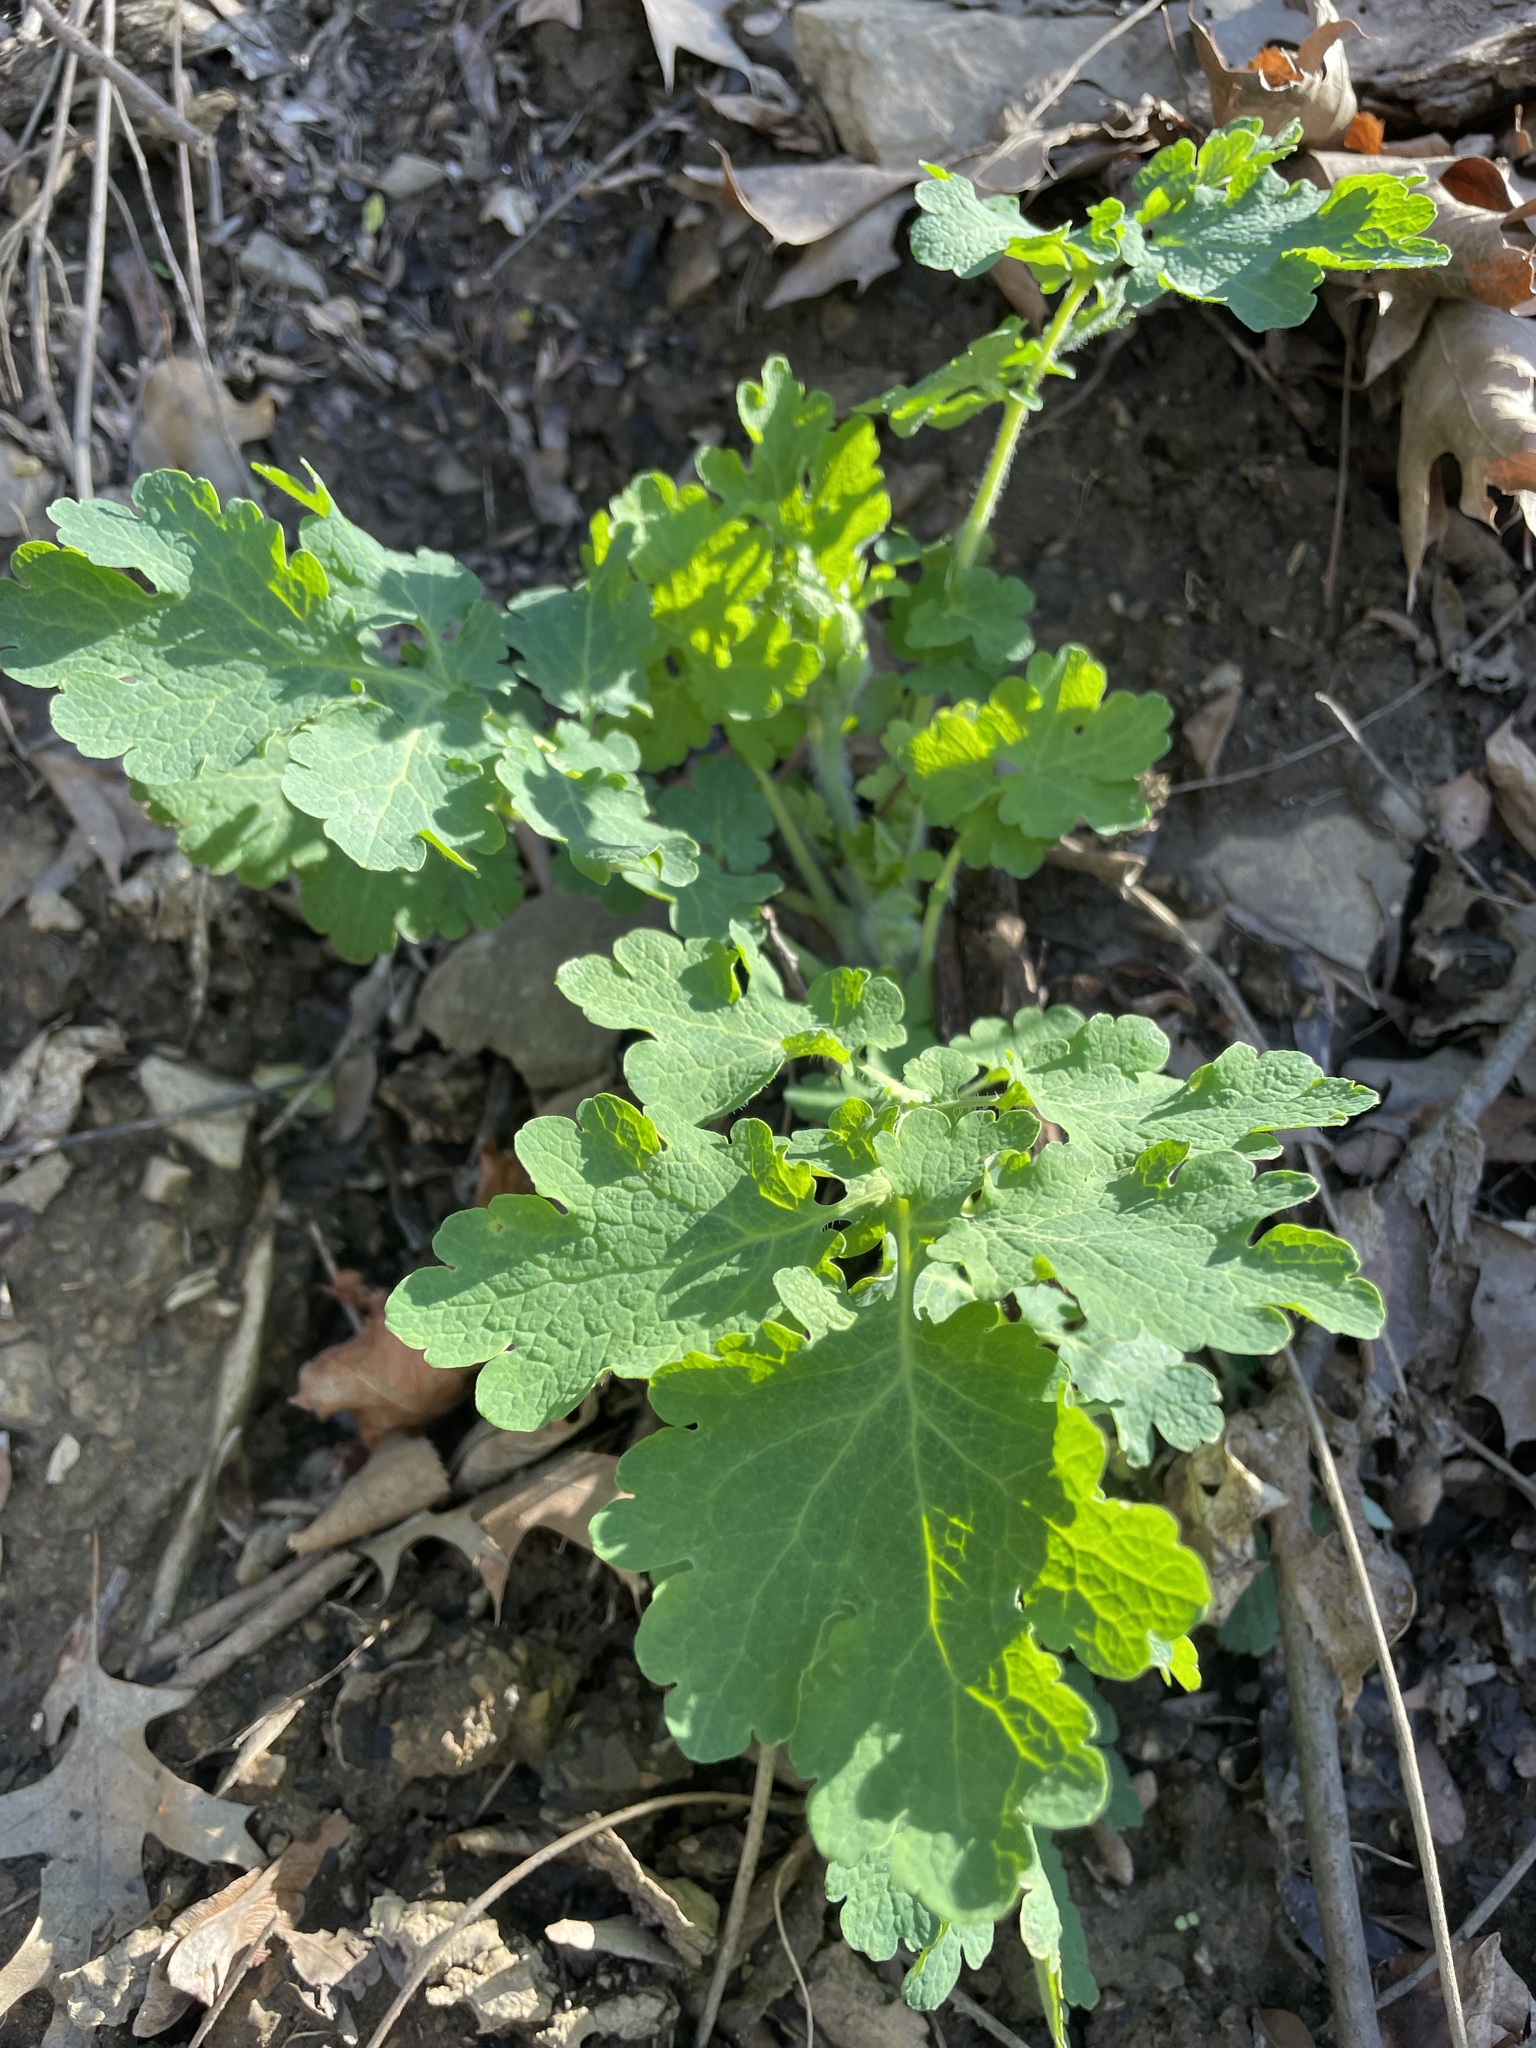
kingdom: Plantae
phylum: Tracheophyta
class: Magnoliopsida
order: Ranunculales
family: Papaveraceae
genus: Chelidonium
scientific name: Chelidonium majus
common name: Greater celandine
